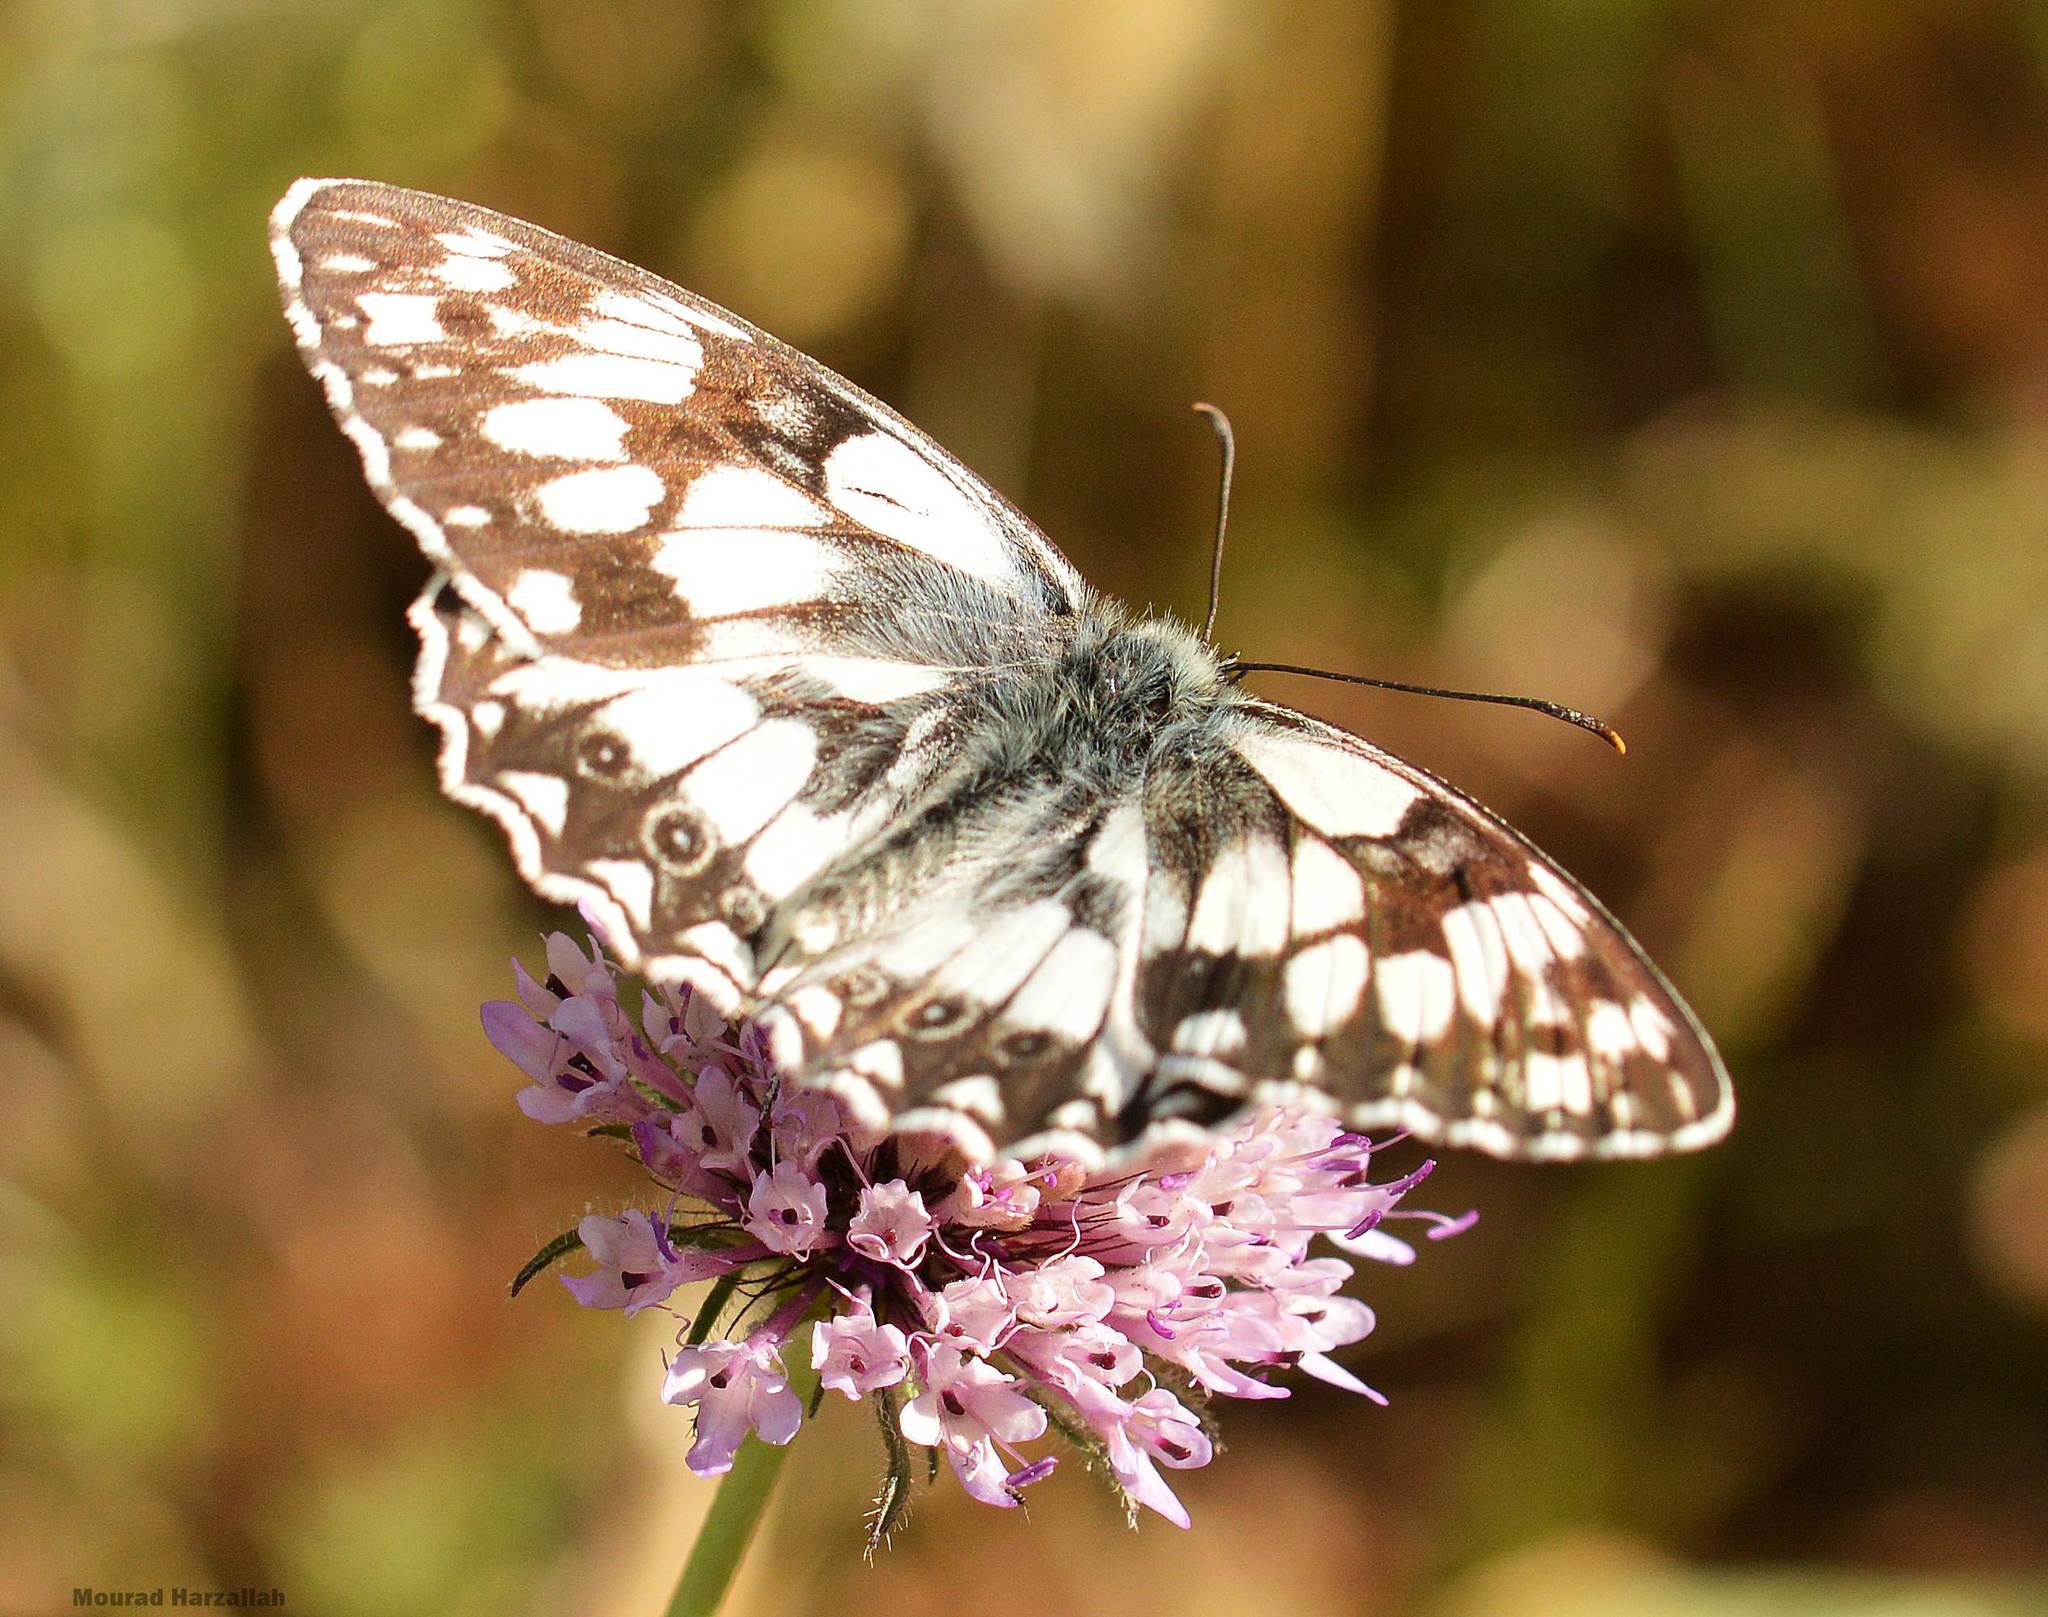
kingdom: Animalia
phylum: Arthropoda
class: Insecta
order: Lepidoptera
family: Nymphalidae
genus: Melanargia
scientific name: Melanargia ines
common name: Spanish marbled white
